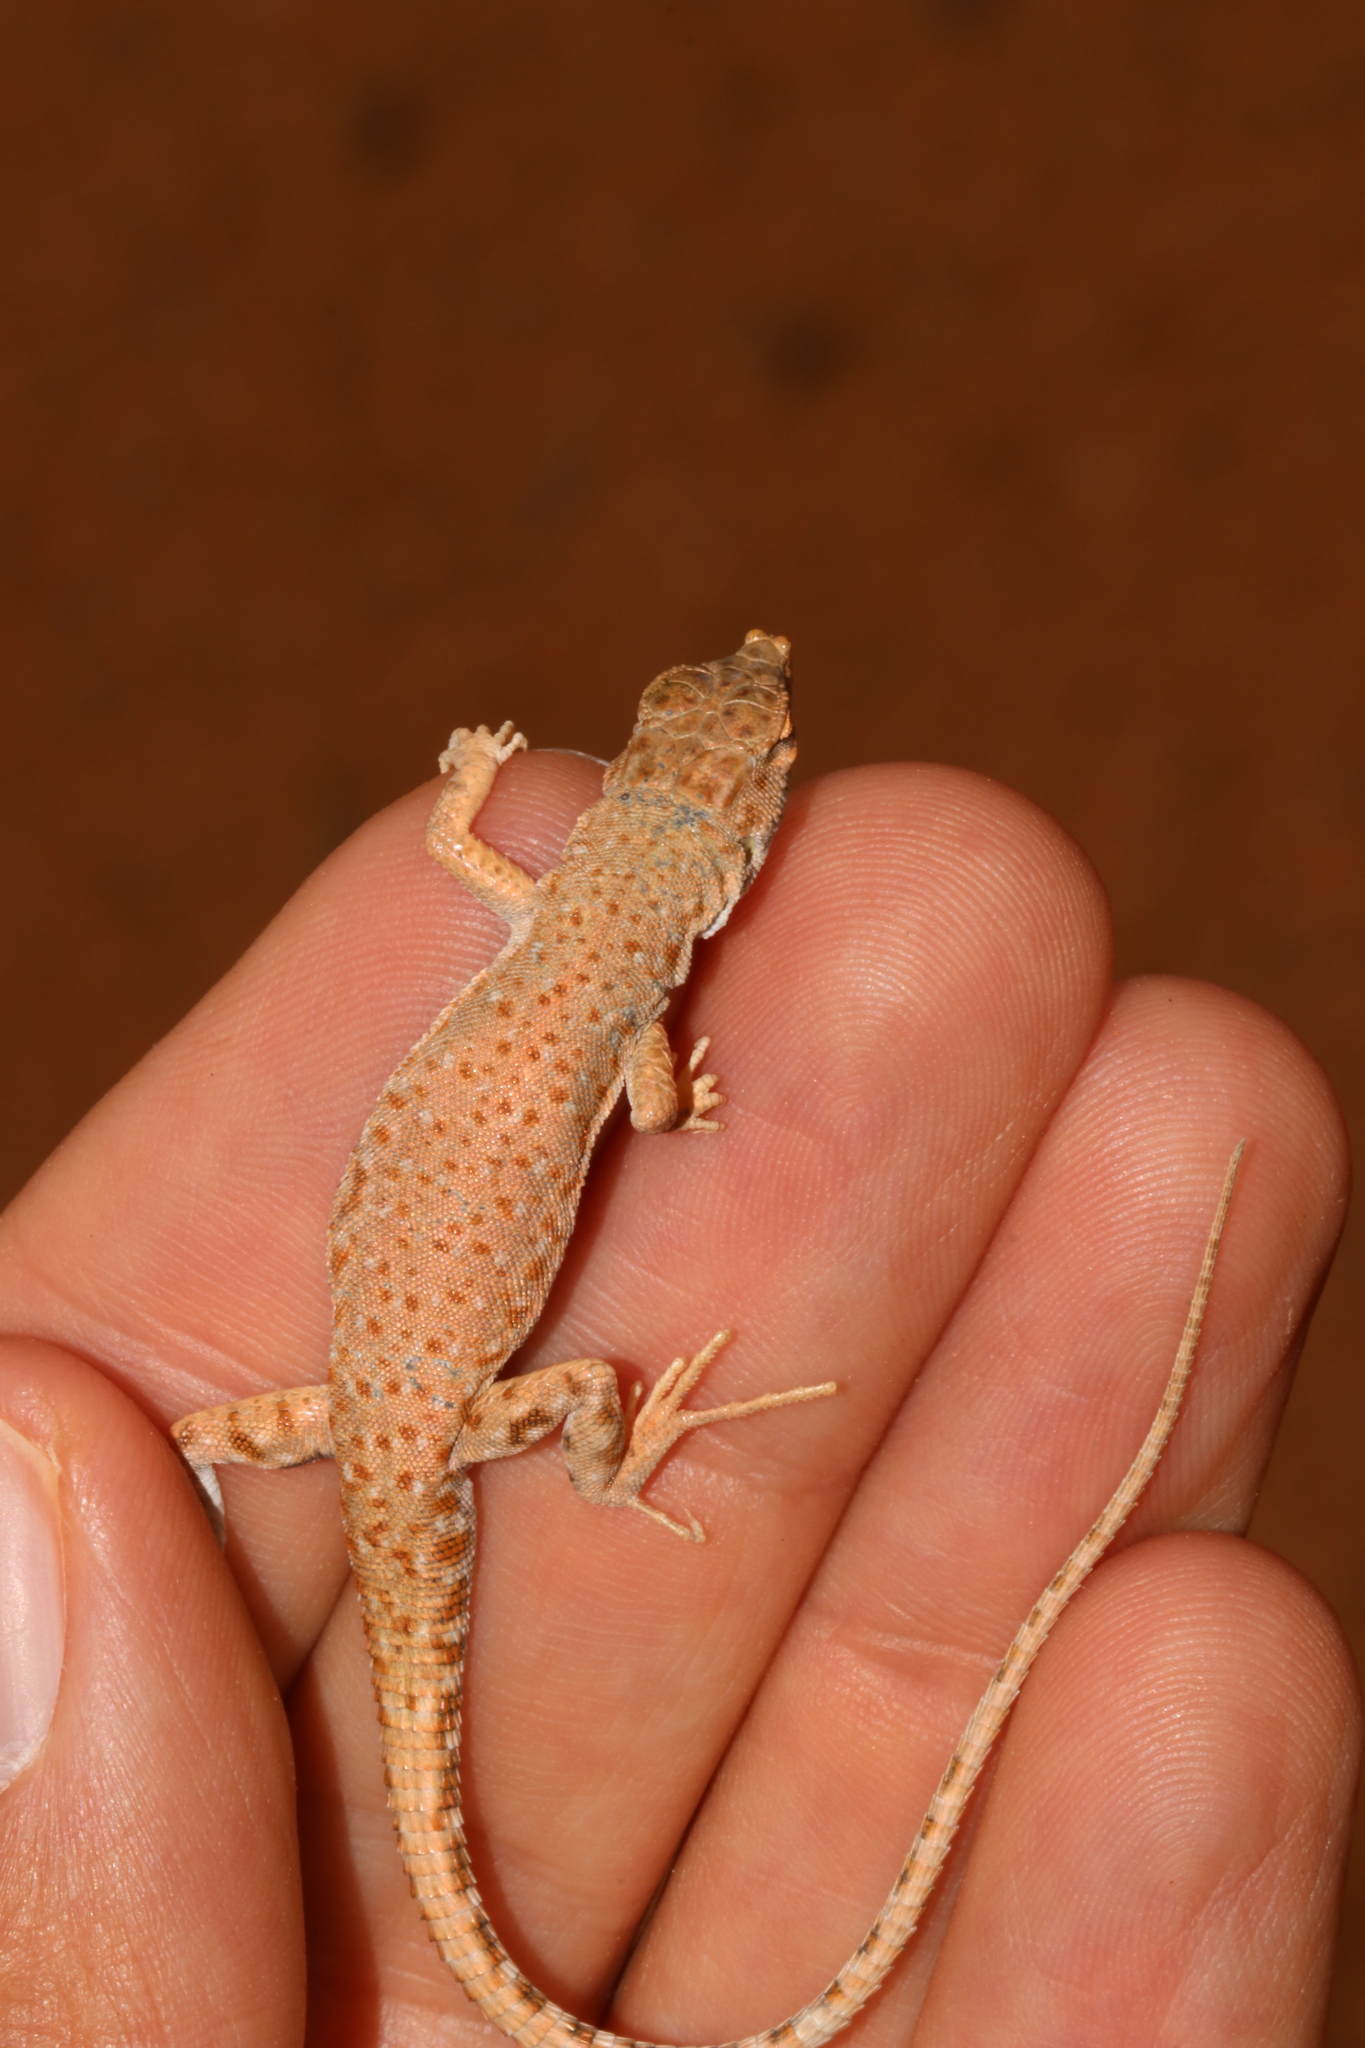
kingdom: Animalia
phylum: Chordata
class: Squamata
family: Lacertidae
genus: Mesalina
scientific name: Mesalina brevirostris
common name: Blanford's short-nosed desert lizard
